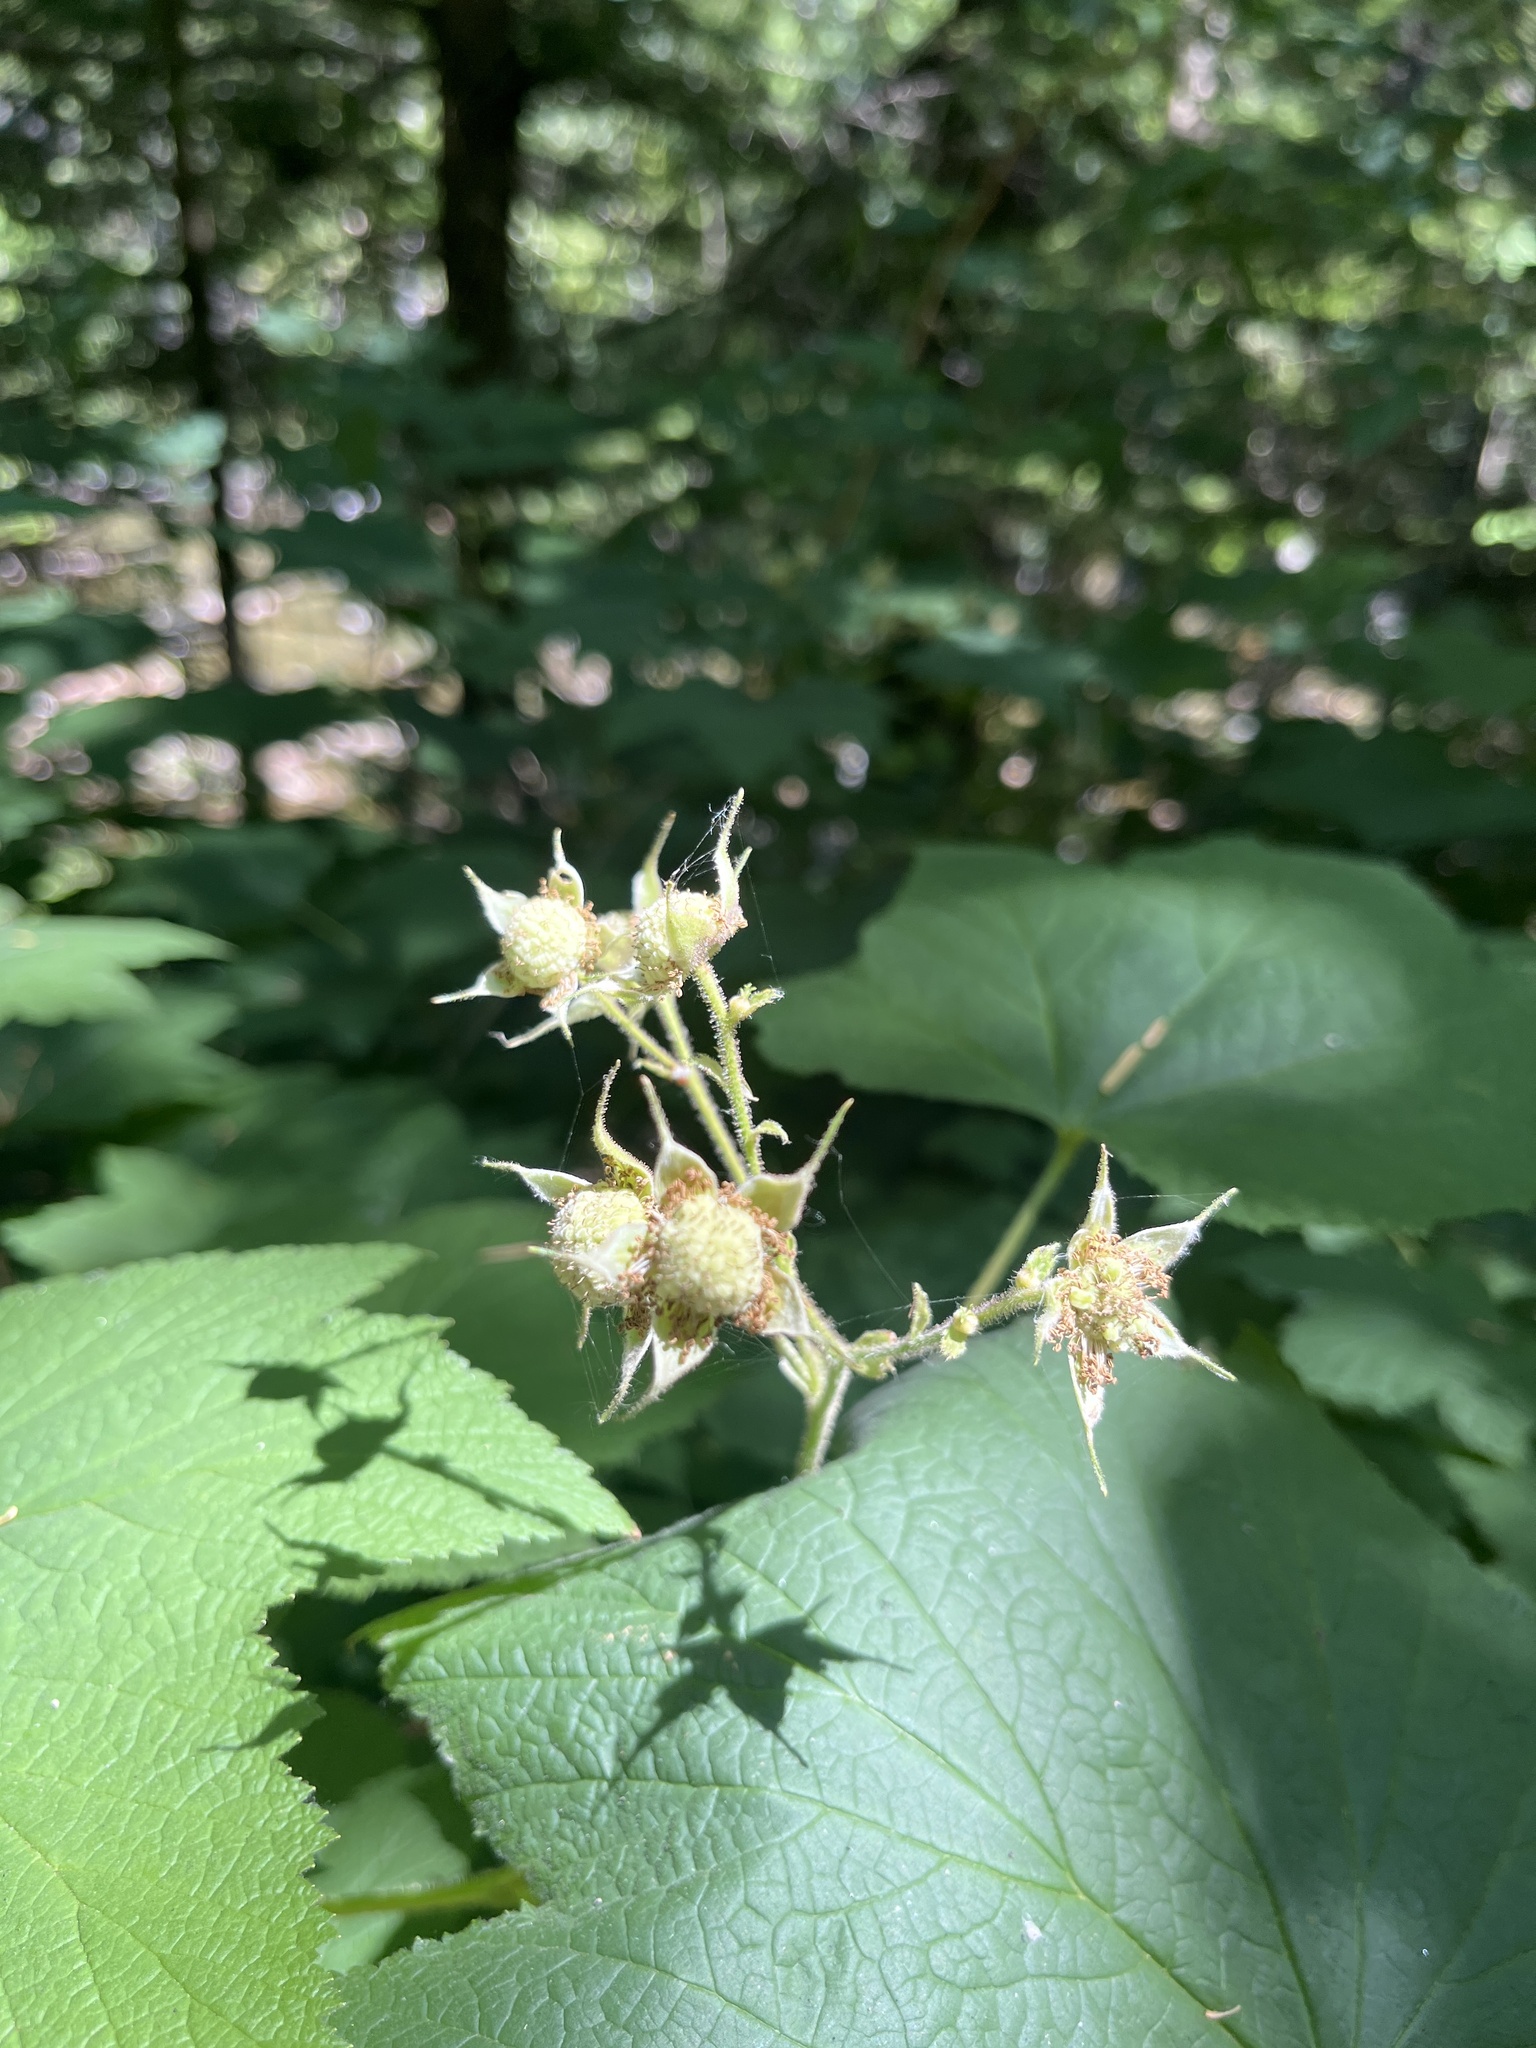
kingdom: Plantae
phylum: Tracheophyta
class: Magnoliopsida
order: Rosales
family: Rosaceae
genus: Rubus
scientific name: Rubus parviflorus
